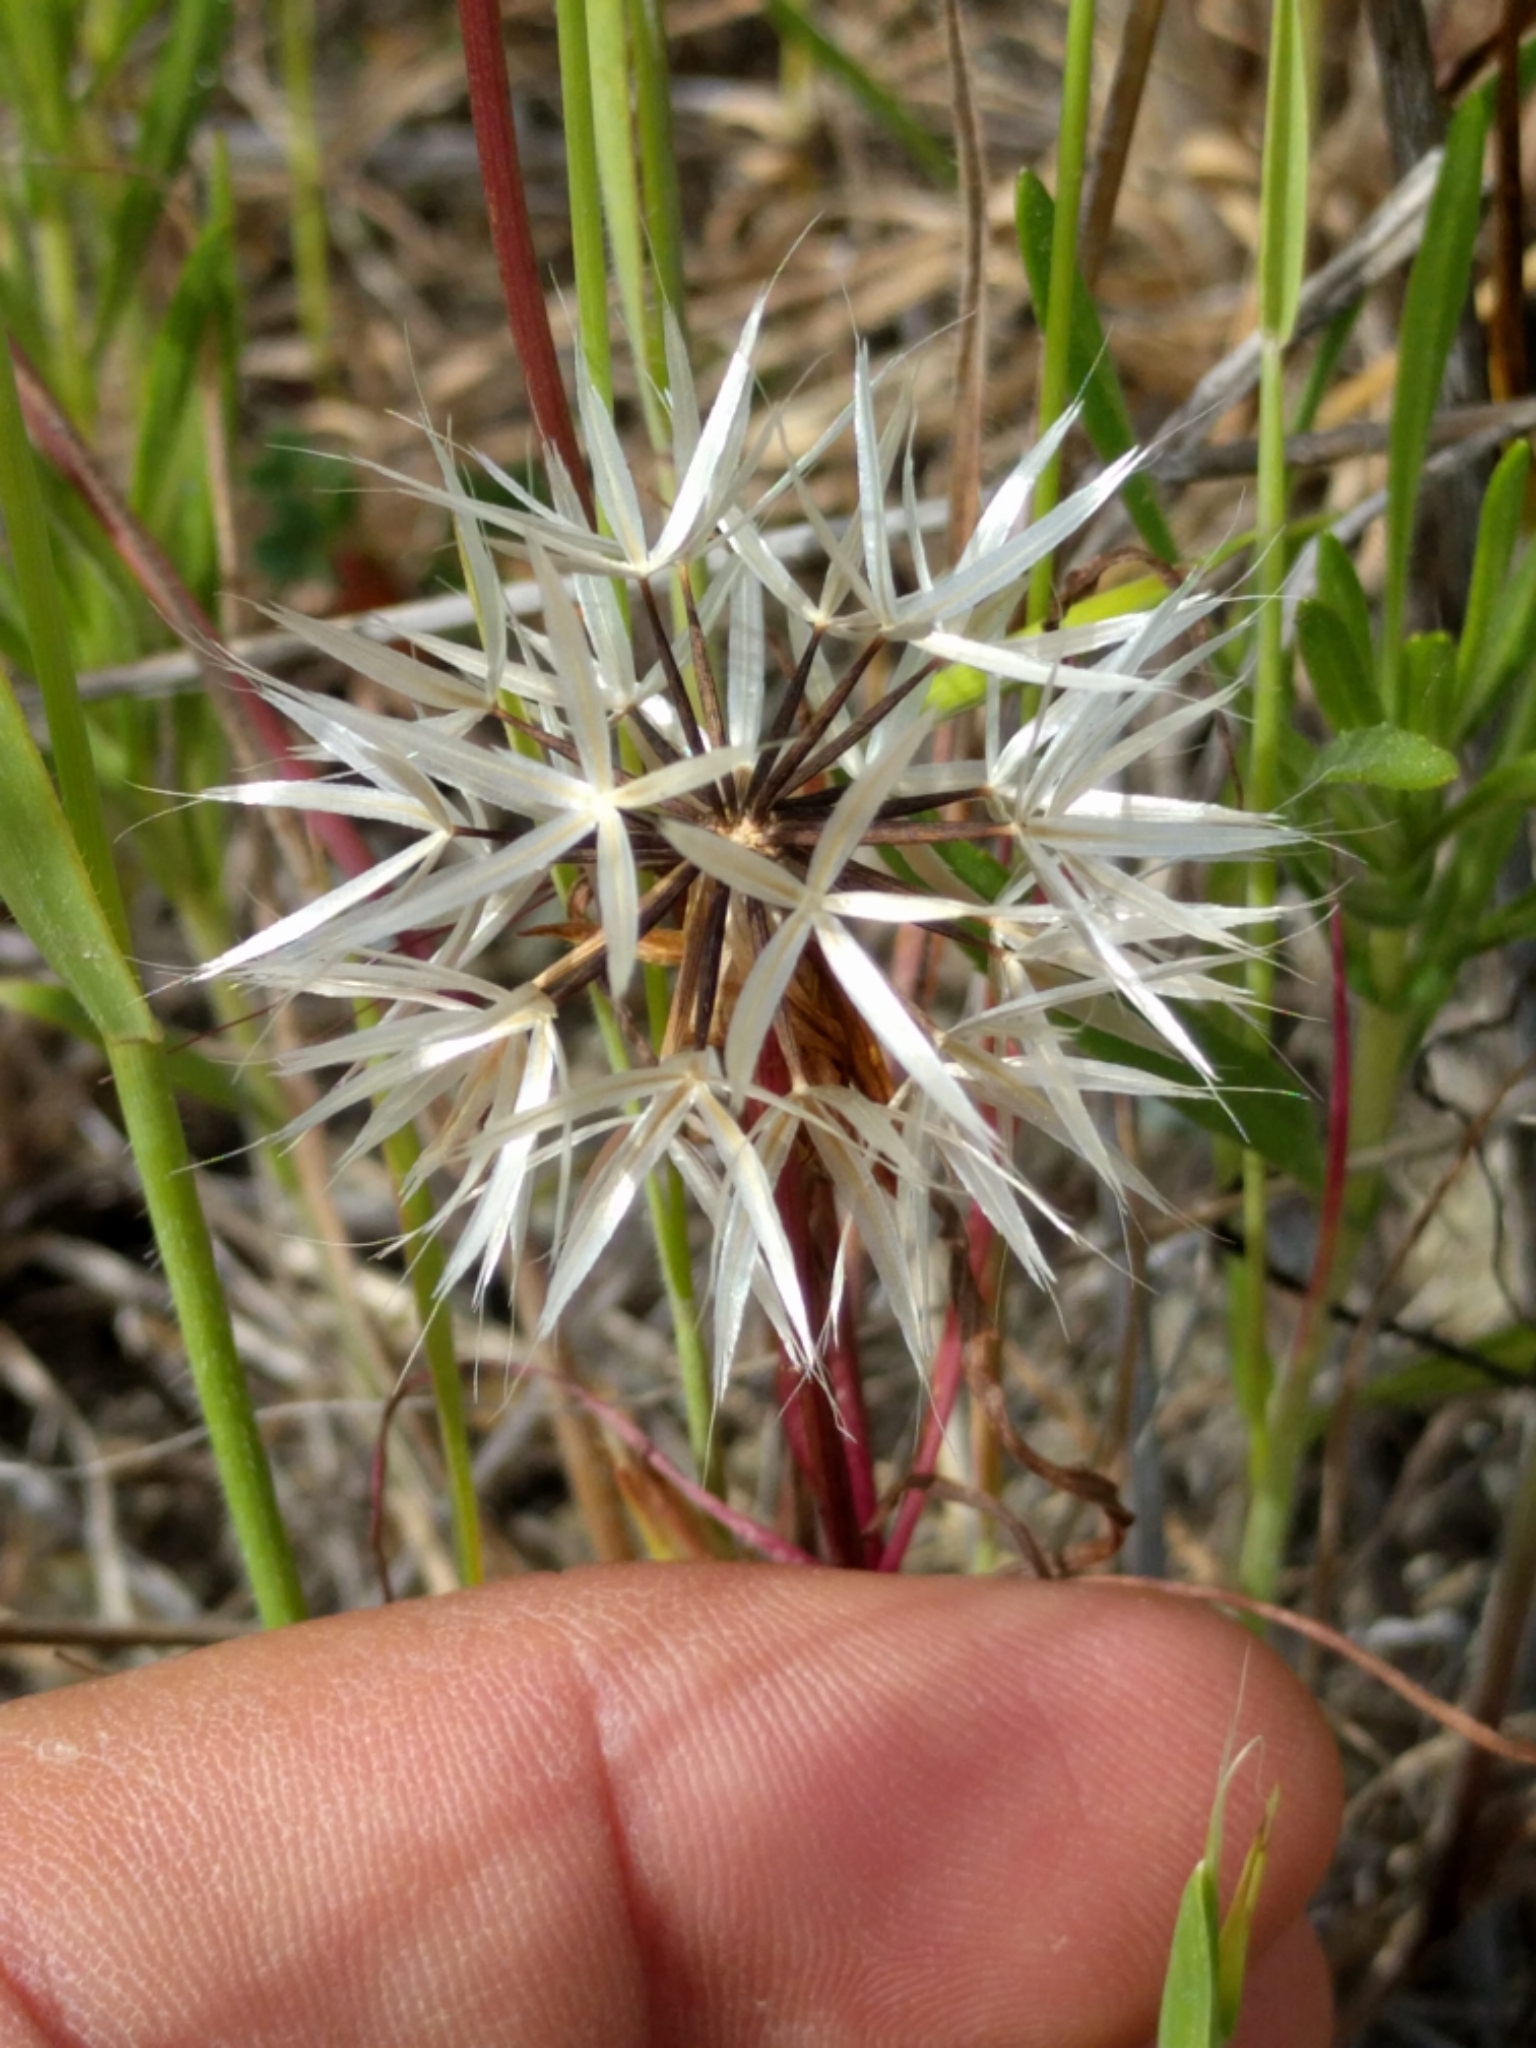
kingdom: Plantae
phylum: Tracheophyta
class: Magnoliopsida
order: Asterales
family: Asteraceae
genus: Microseris
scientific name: Microseris lindleyi
